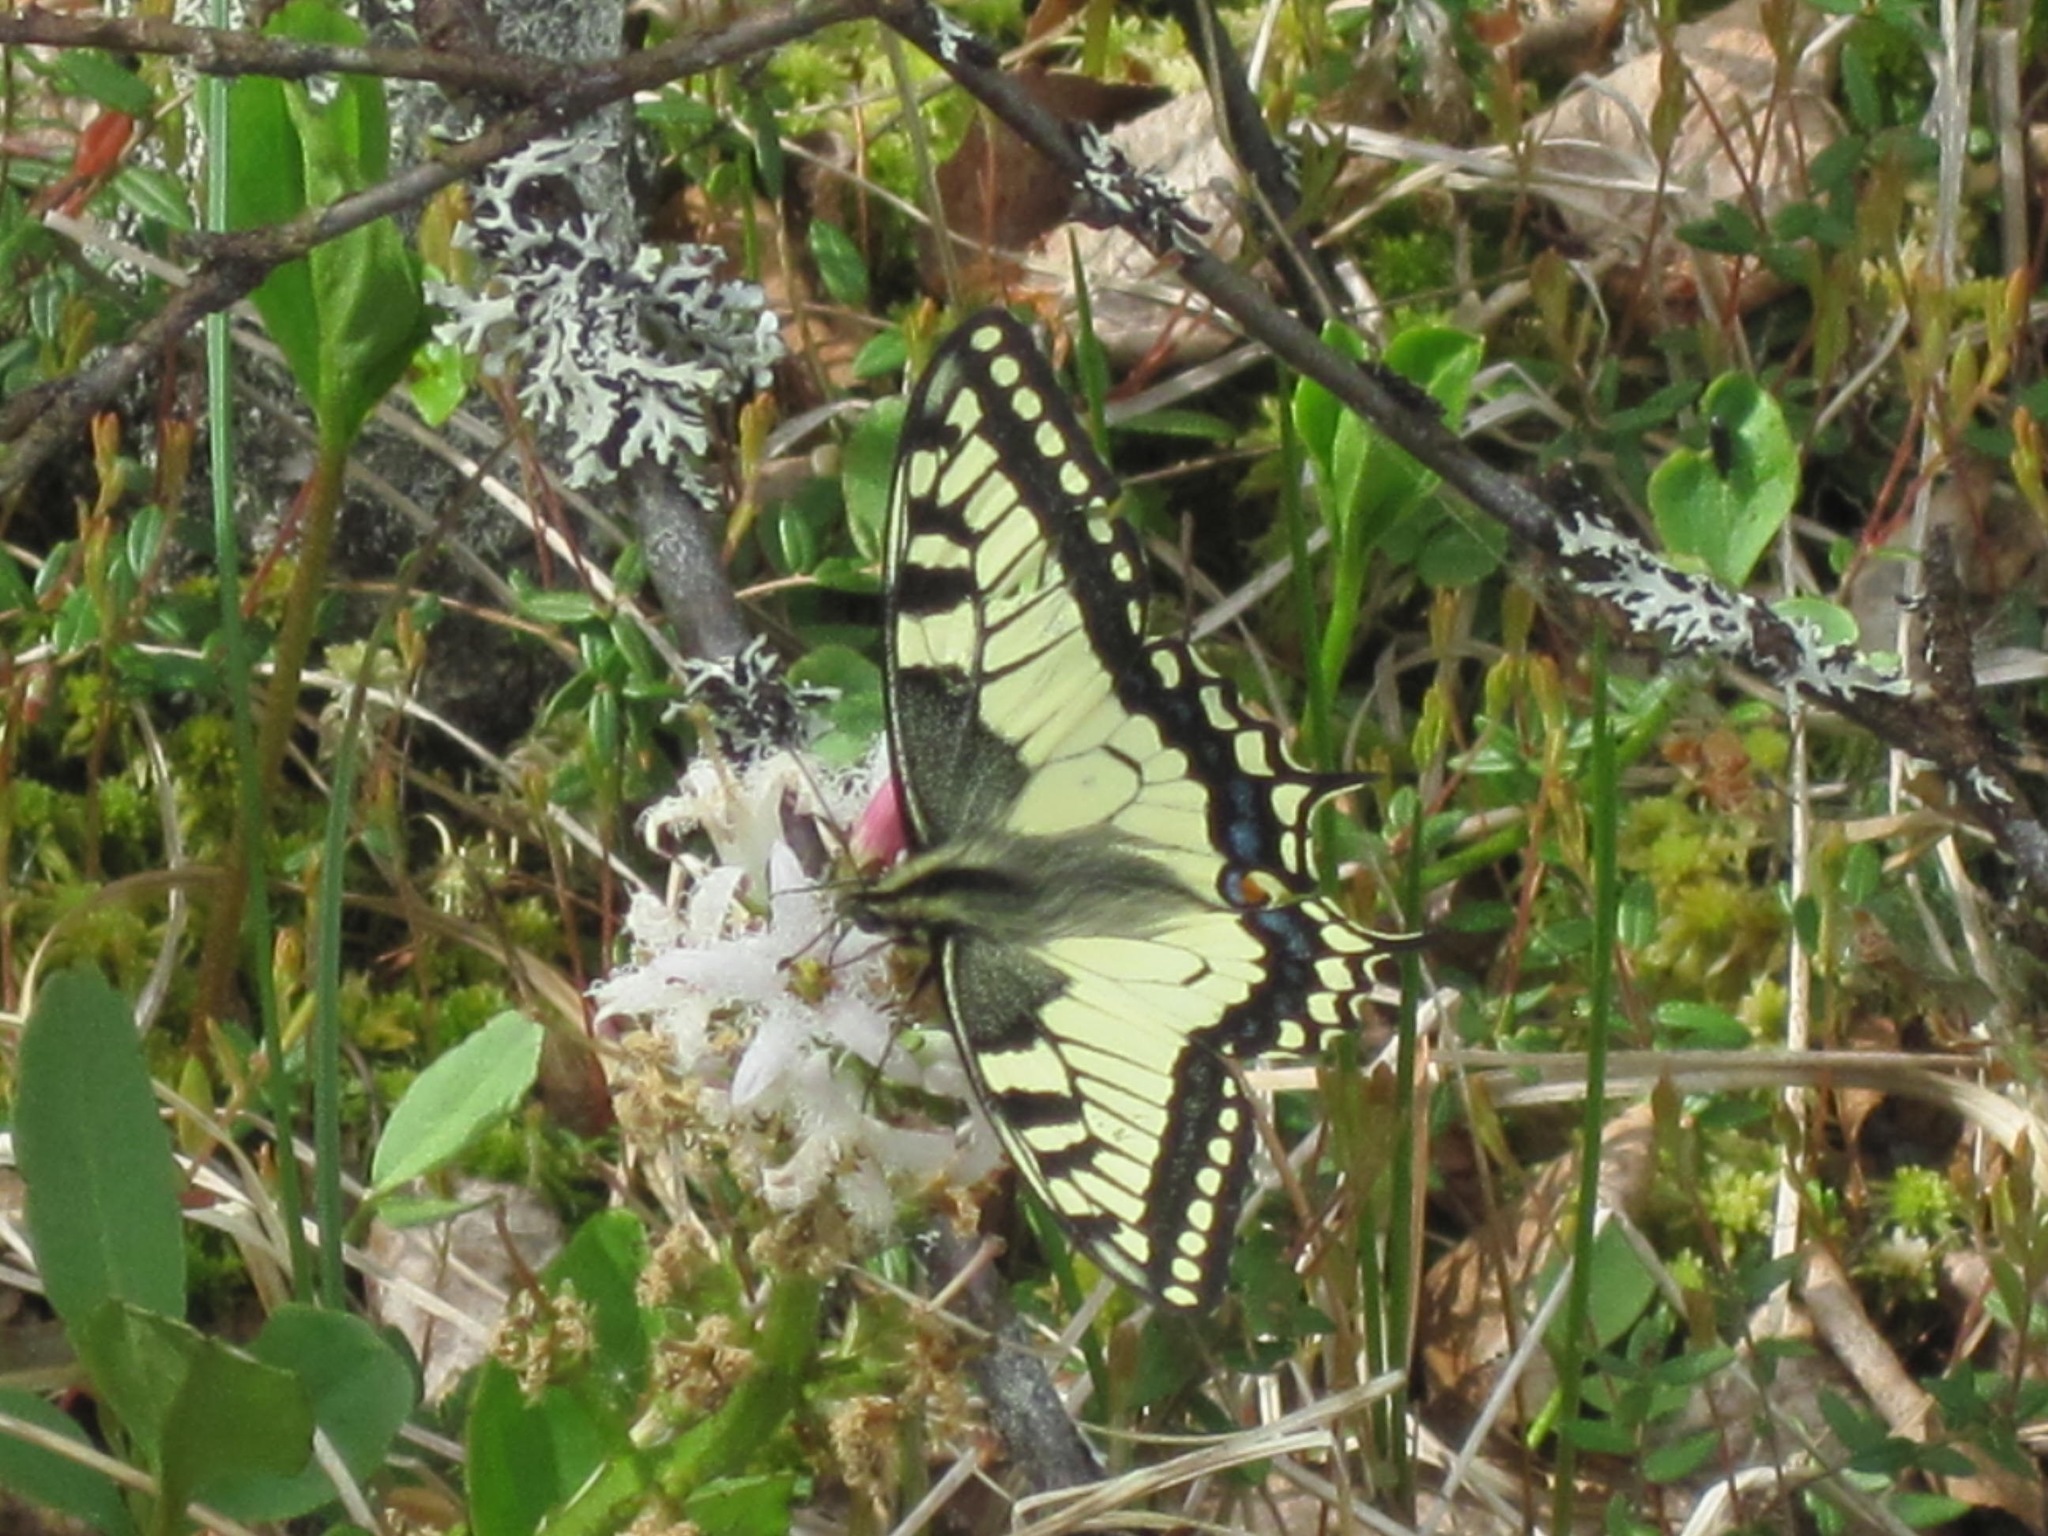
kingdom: Animalia
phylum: Arthropoda
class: Insecta
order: Lepidoptera
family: Papilionidae
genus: Papilio
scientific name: Papilio machaon
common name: Swallowtail
